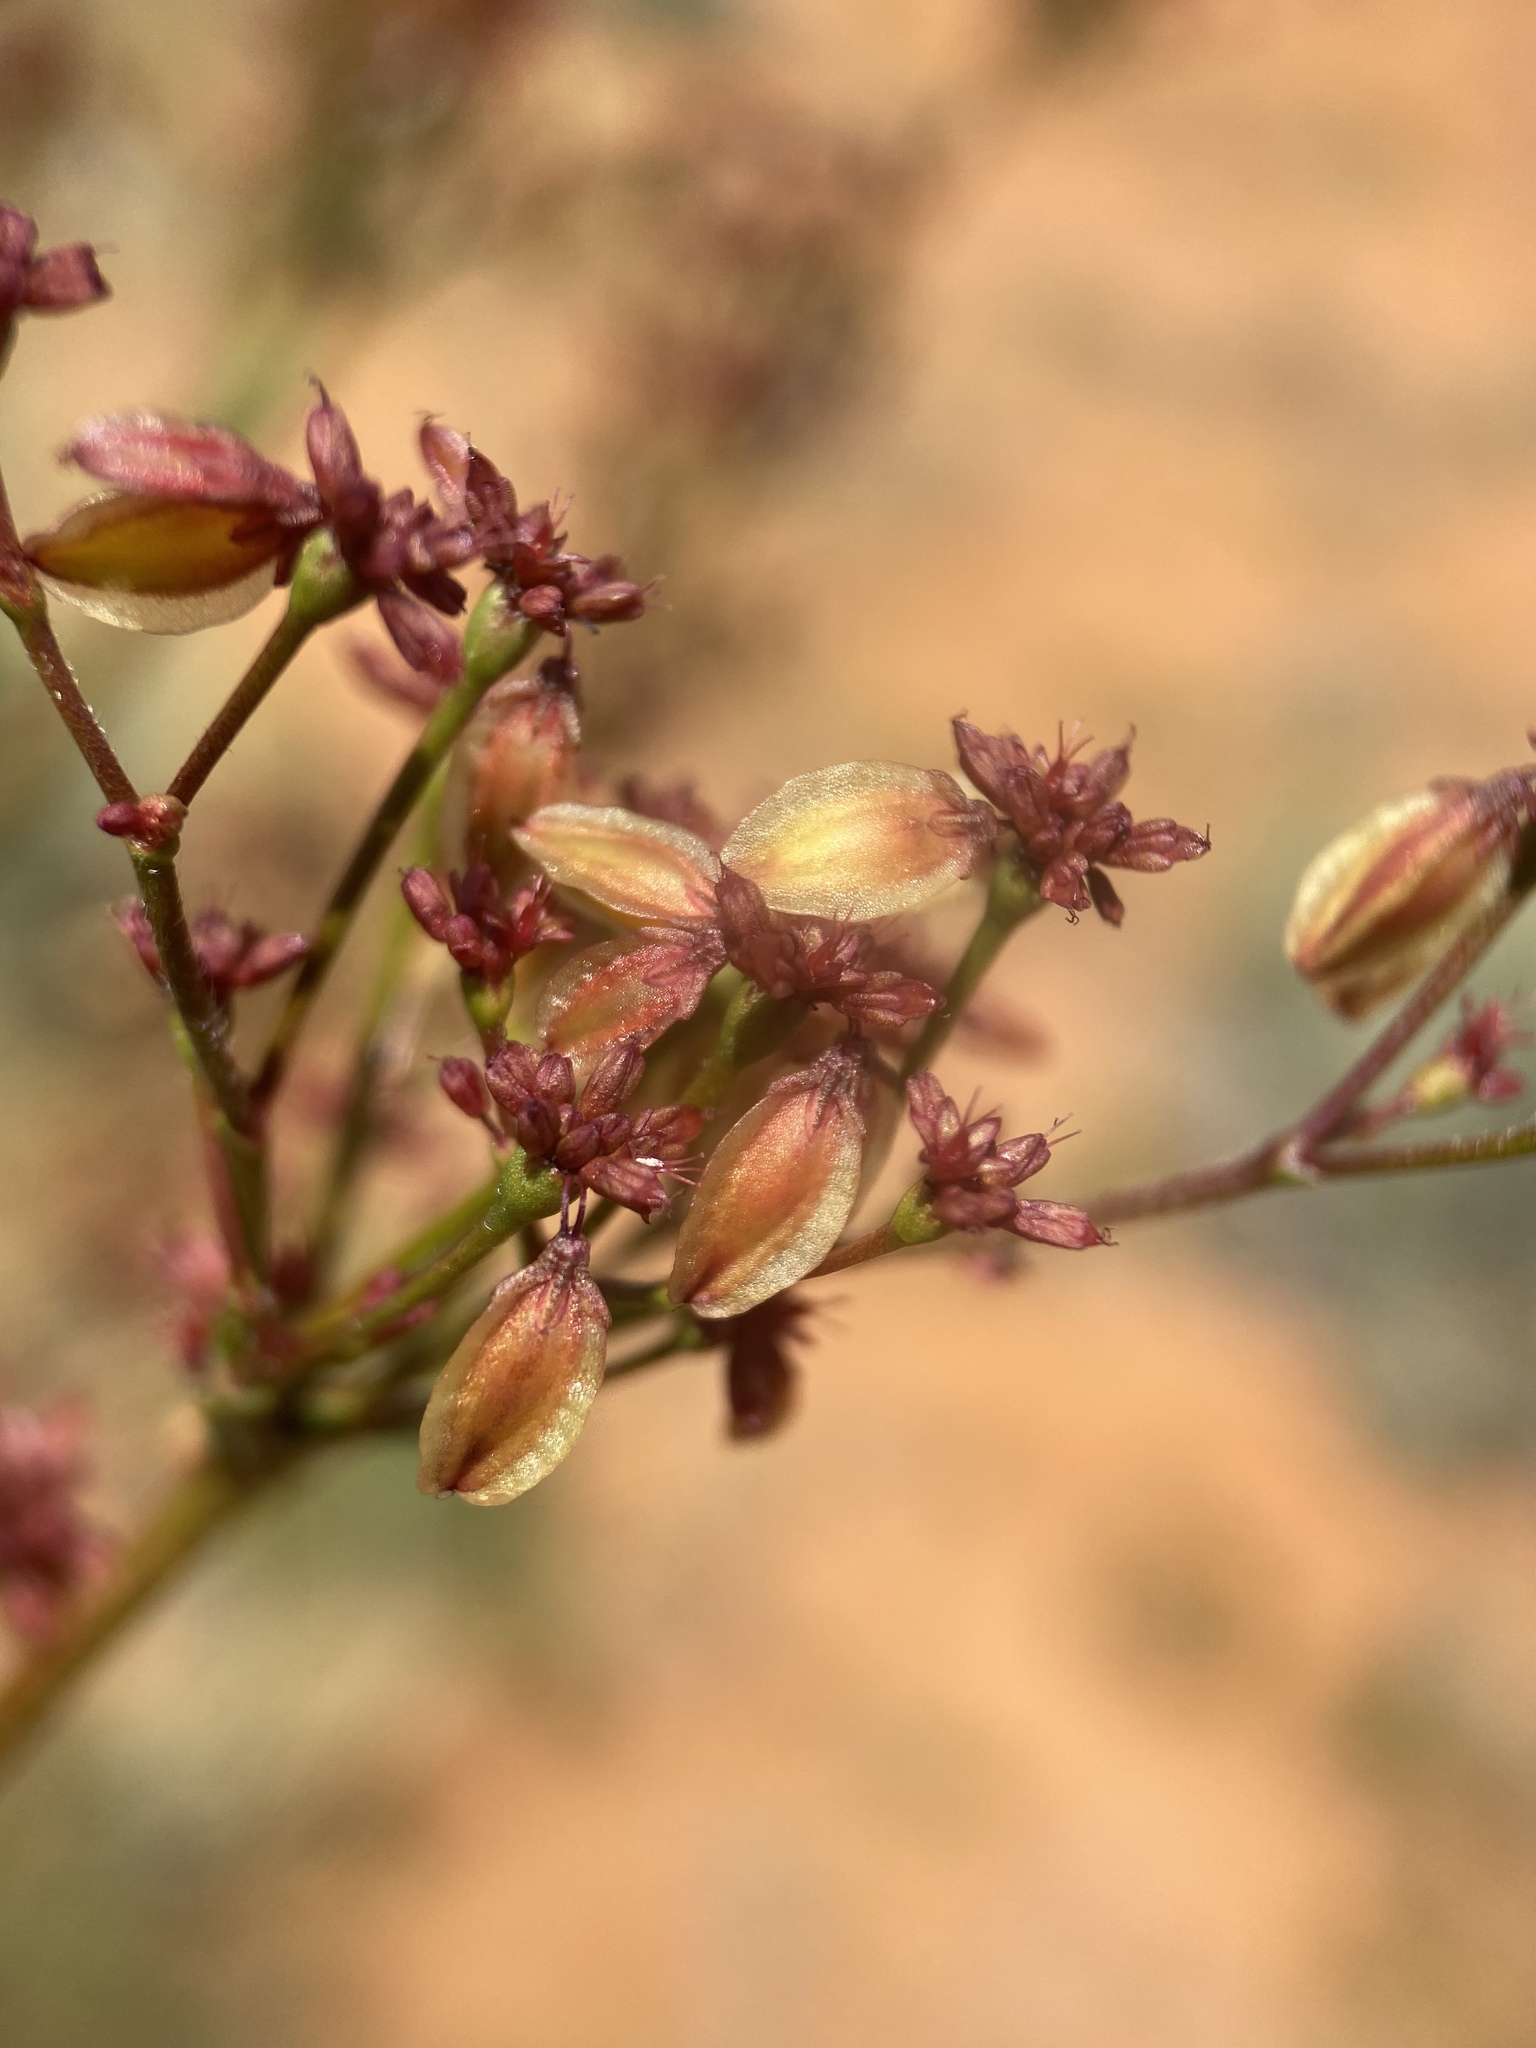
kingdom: Plantae
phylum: Tracheophyta
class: Magnoliopsida
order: Caryophyllales
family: Polygonaceae
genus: Eriogonum
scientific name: Eriogonum alatum
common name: Winged eriogonum
